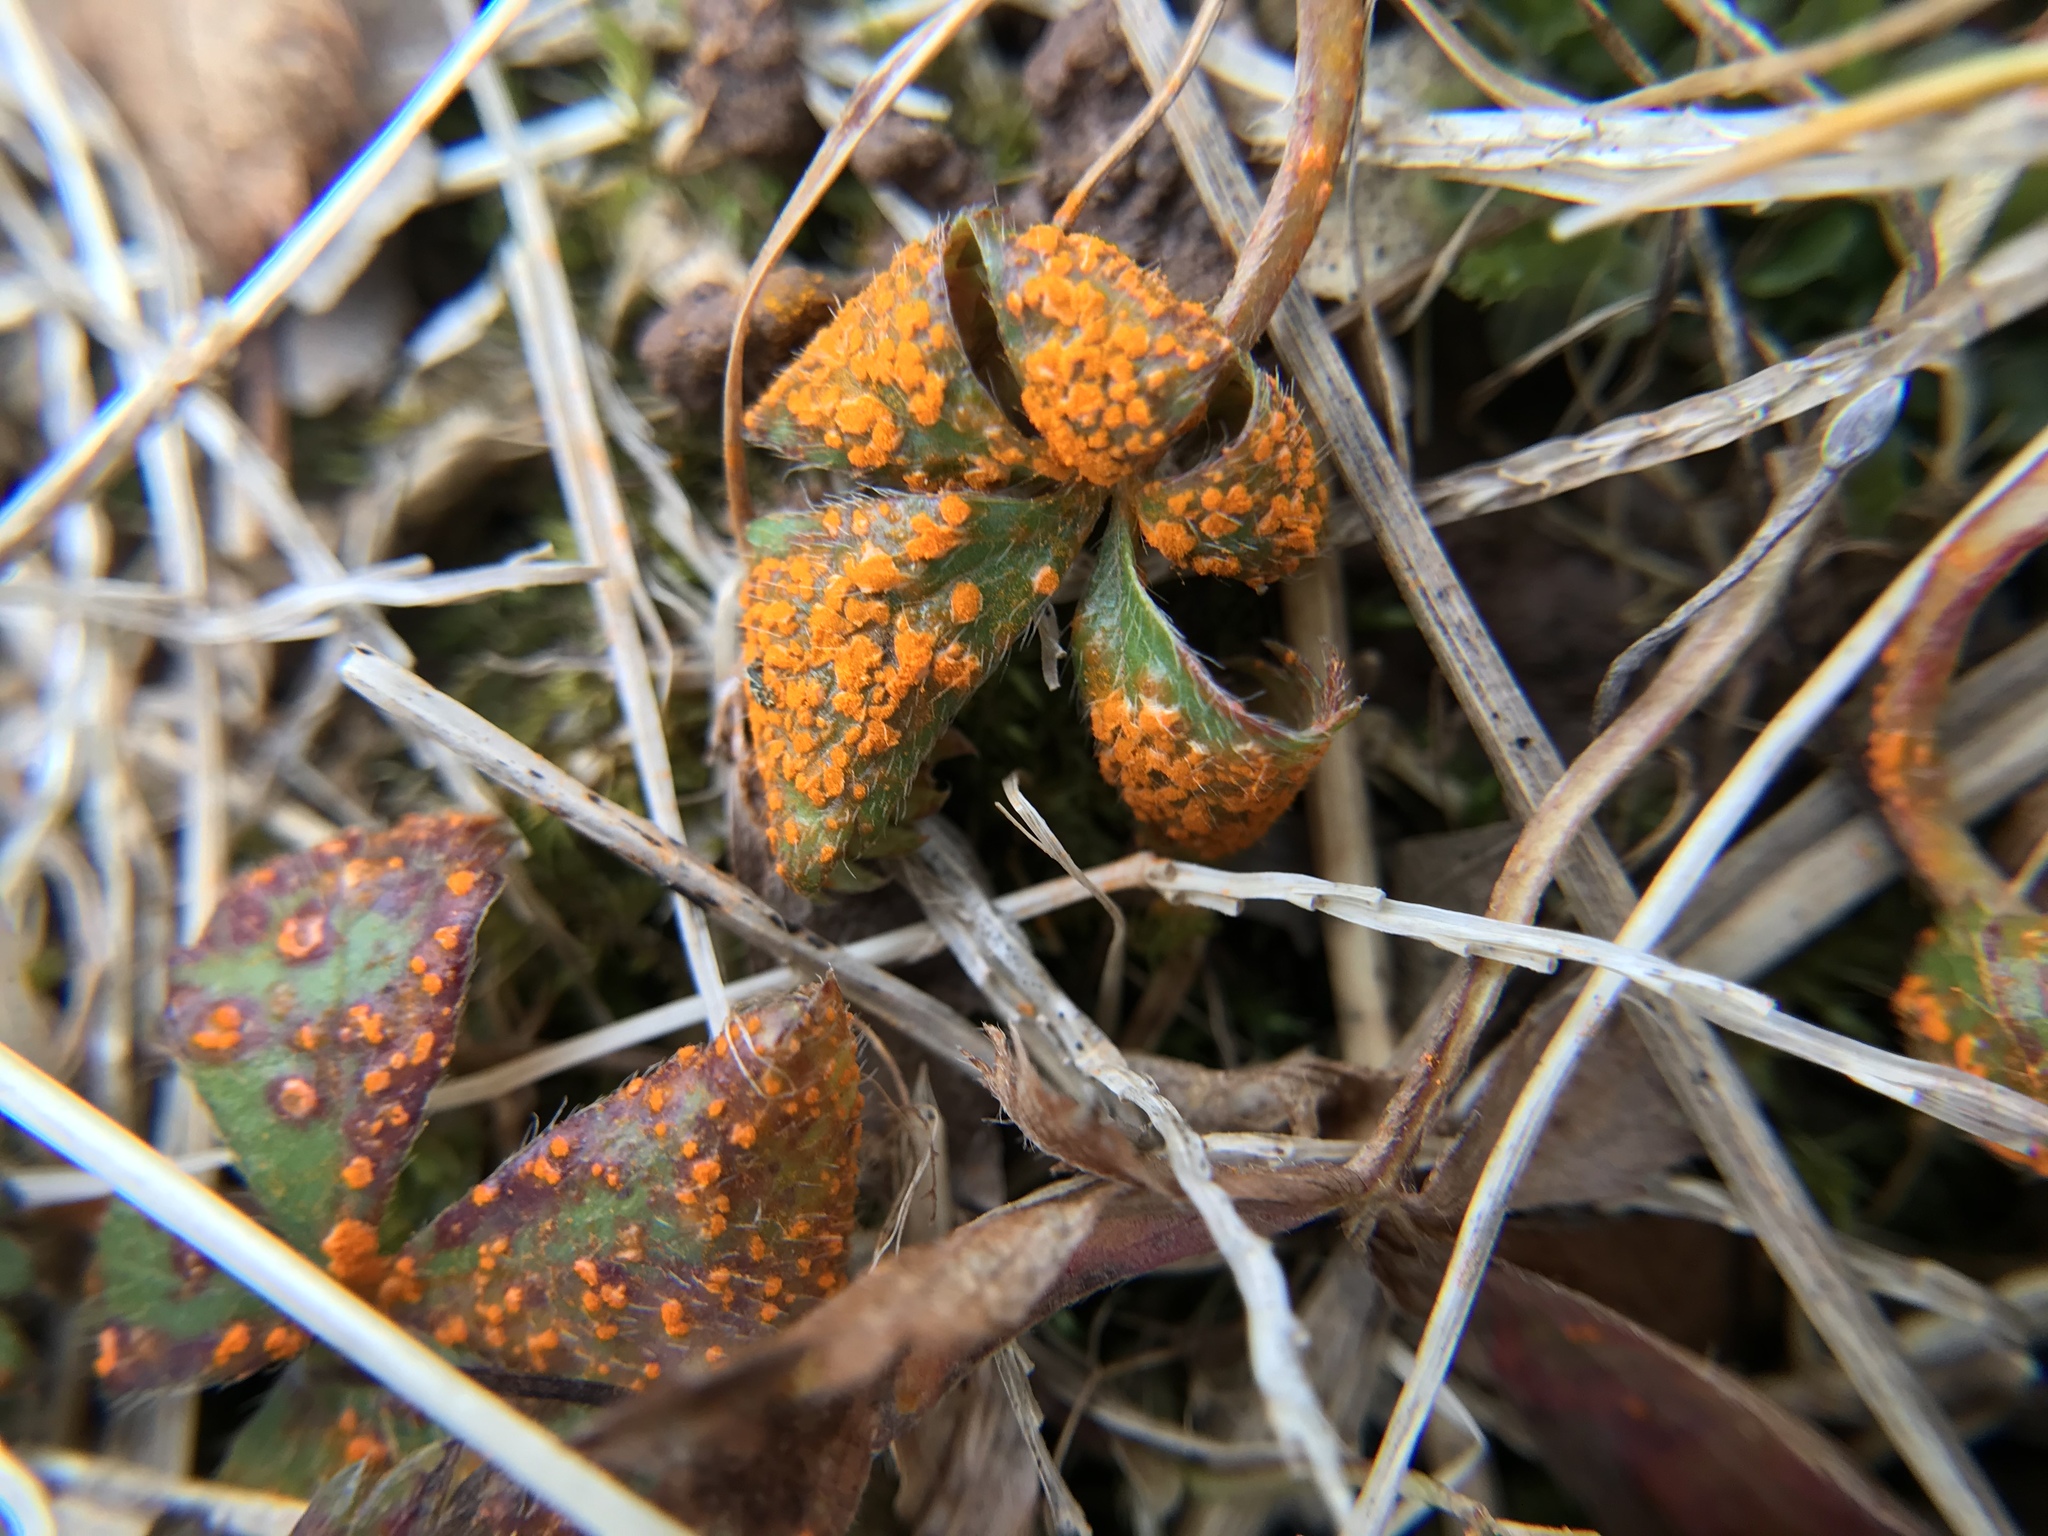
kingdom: Fungi
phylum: Basidiomycota
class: Pucciniomycetes
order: Pucciniales
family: Phragmidiaceae
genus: Phragmidium
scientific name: Phragmidium potentillae
